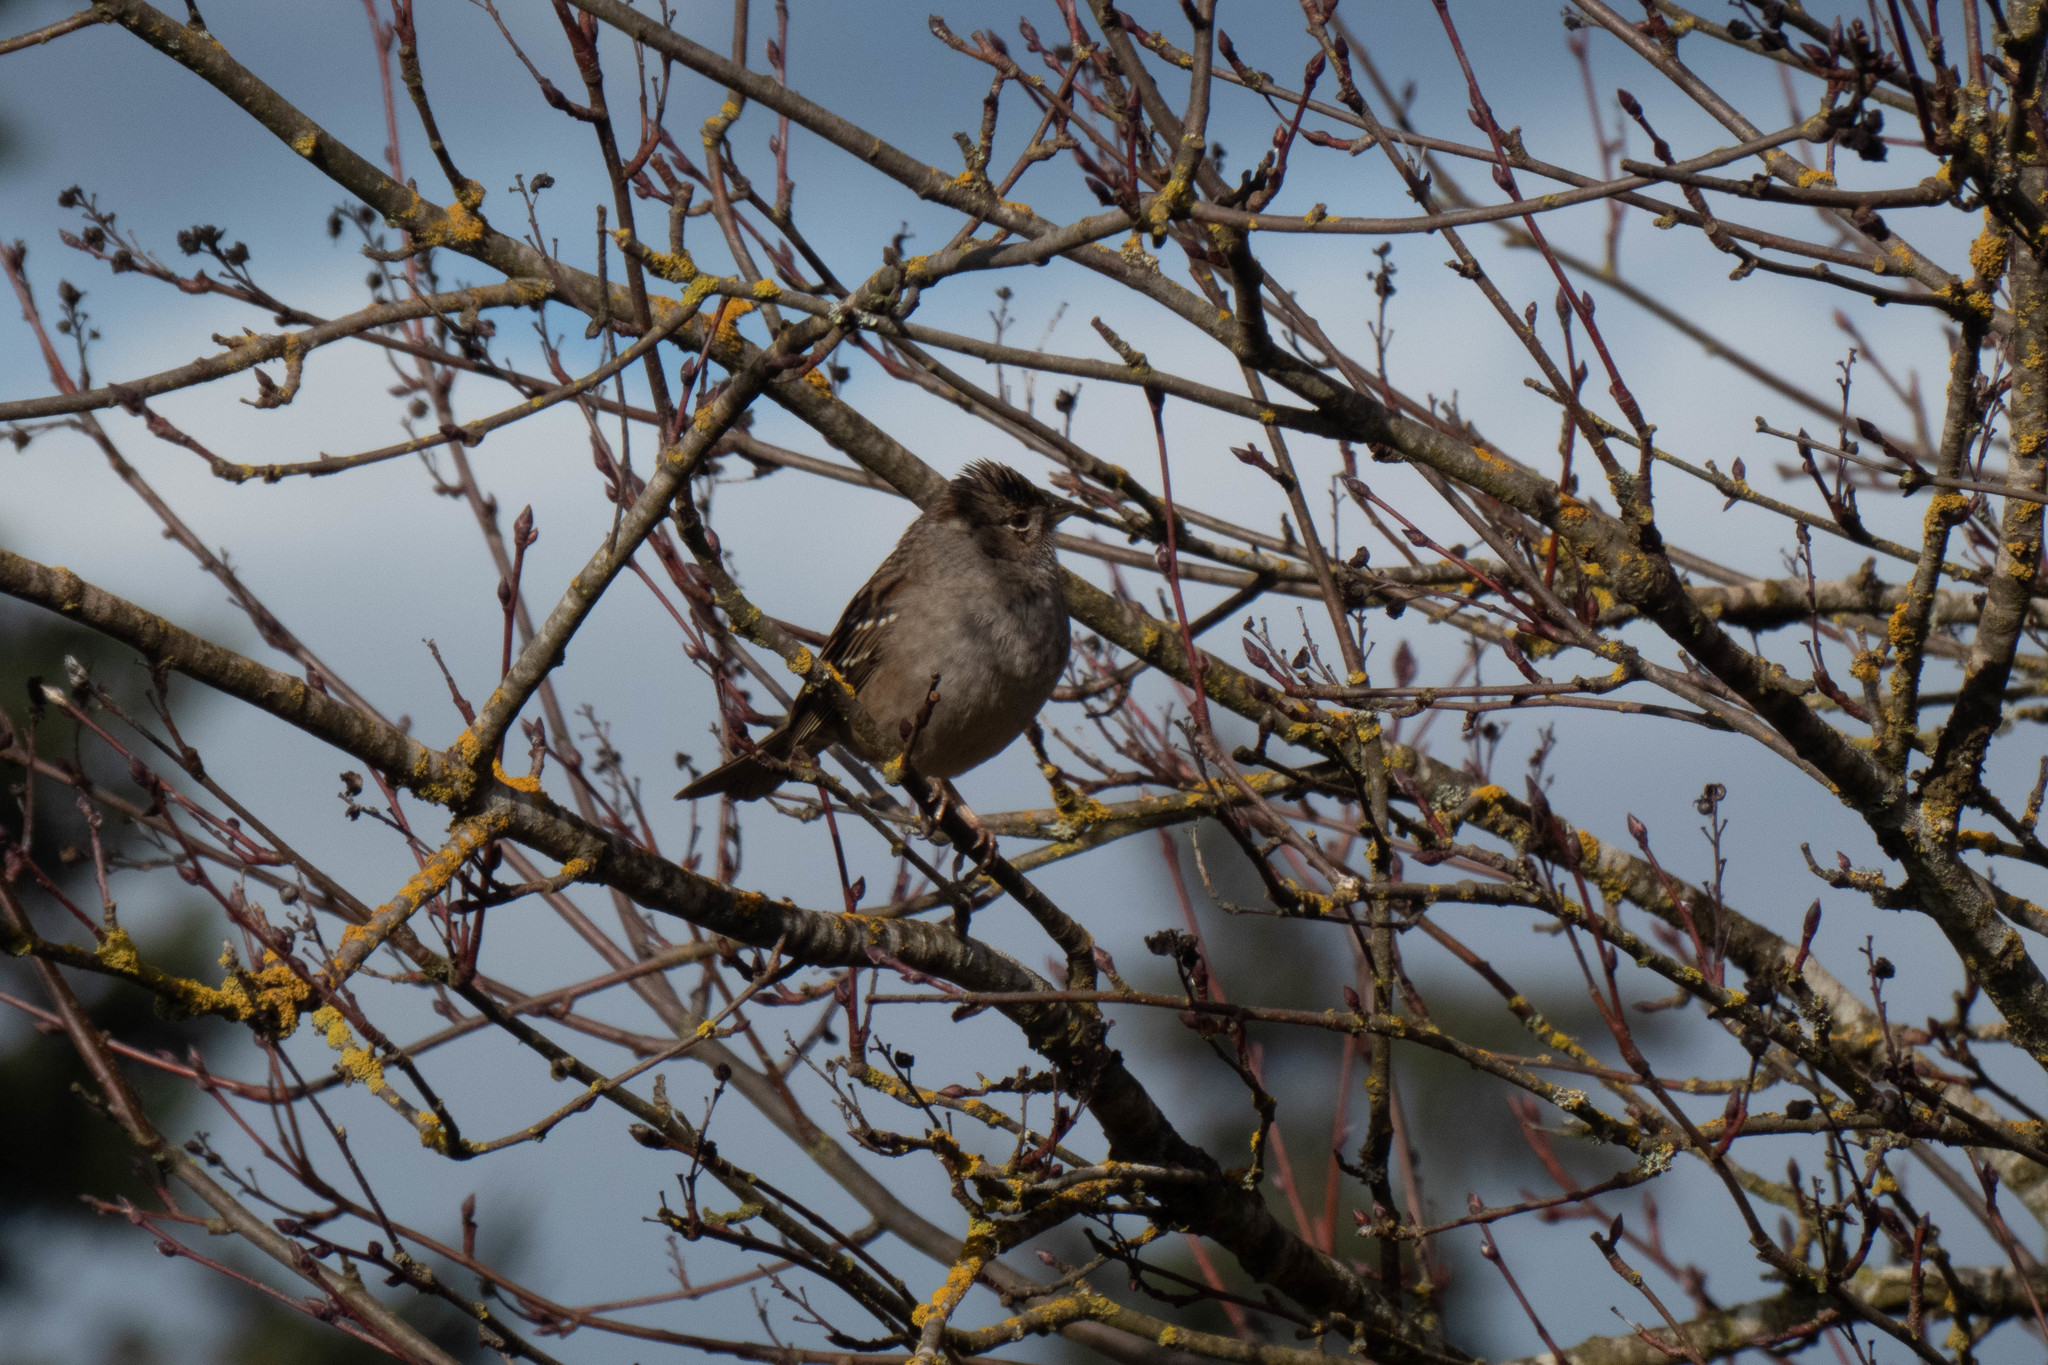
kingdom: Animalia
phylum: Chordata
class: Aves
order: Passeriformes
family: Passerellidae
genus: Zonotrichia
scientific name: Zonotrichia atricapilla
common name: Golden-crowned sparrow
